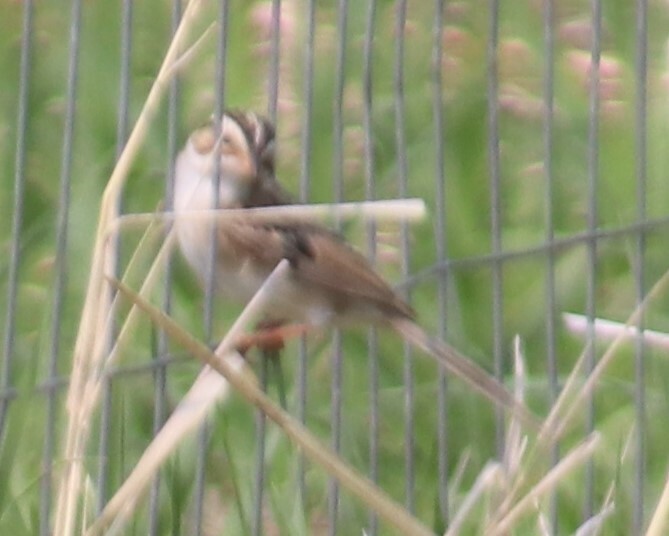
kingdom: Animalia
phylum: Chordata
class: Aves
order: Passeriformes
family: Passerellidae
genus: Spizella
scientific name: Spizella pallida
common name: Clay-colored sparrow
